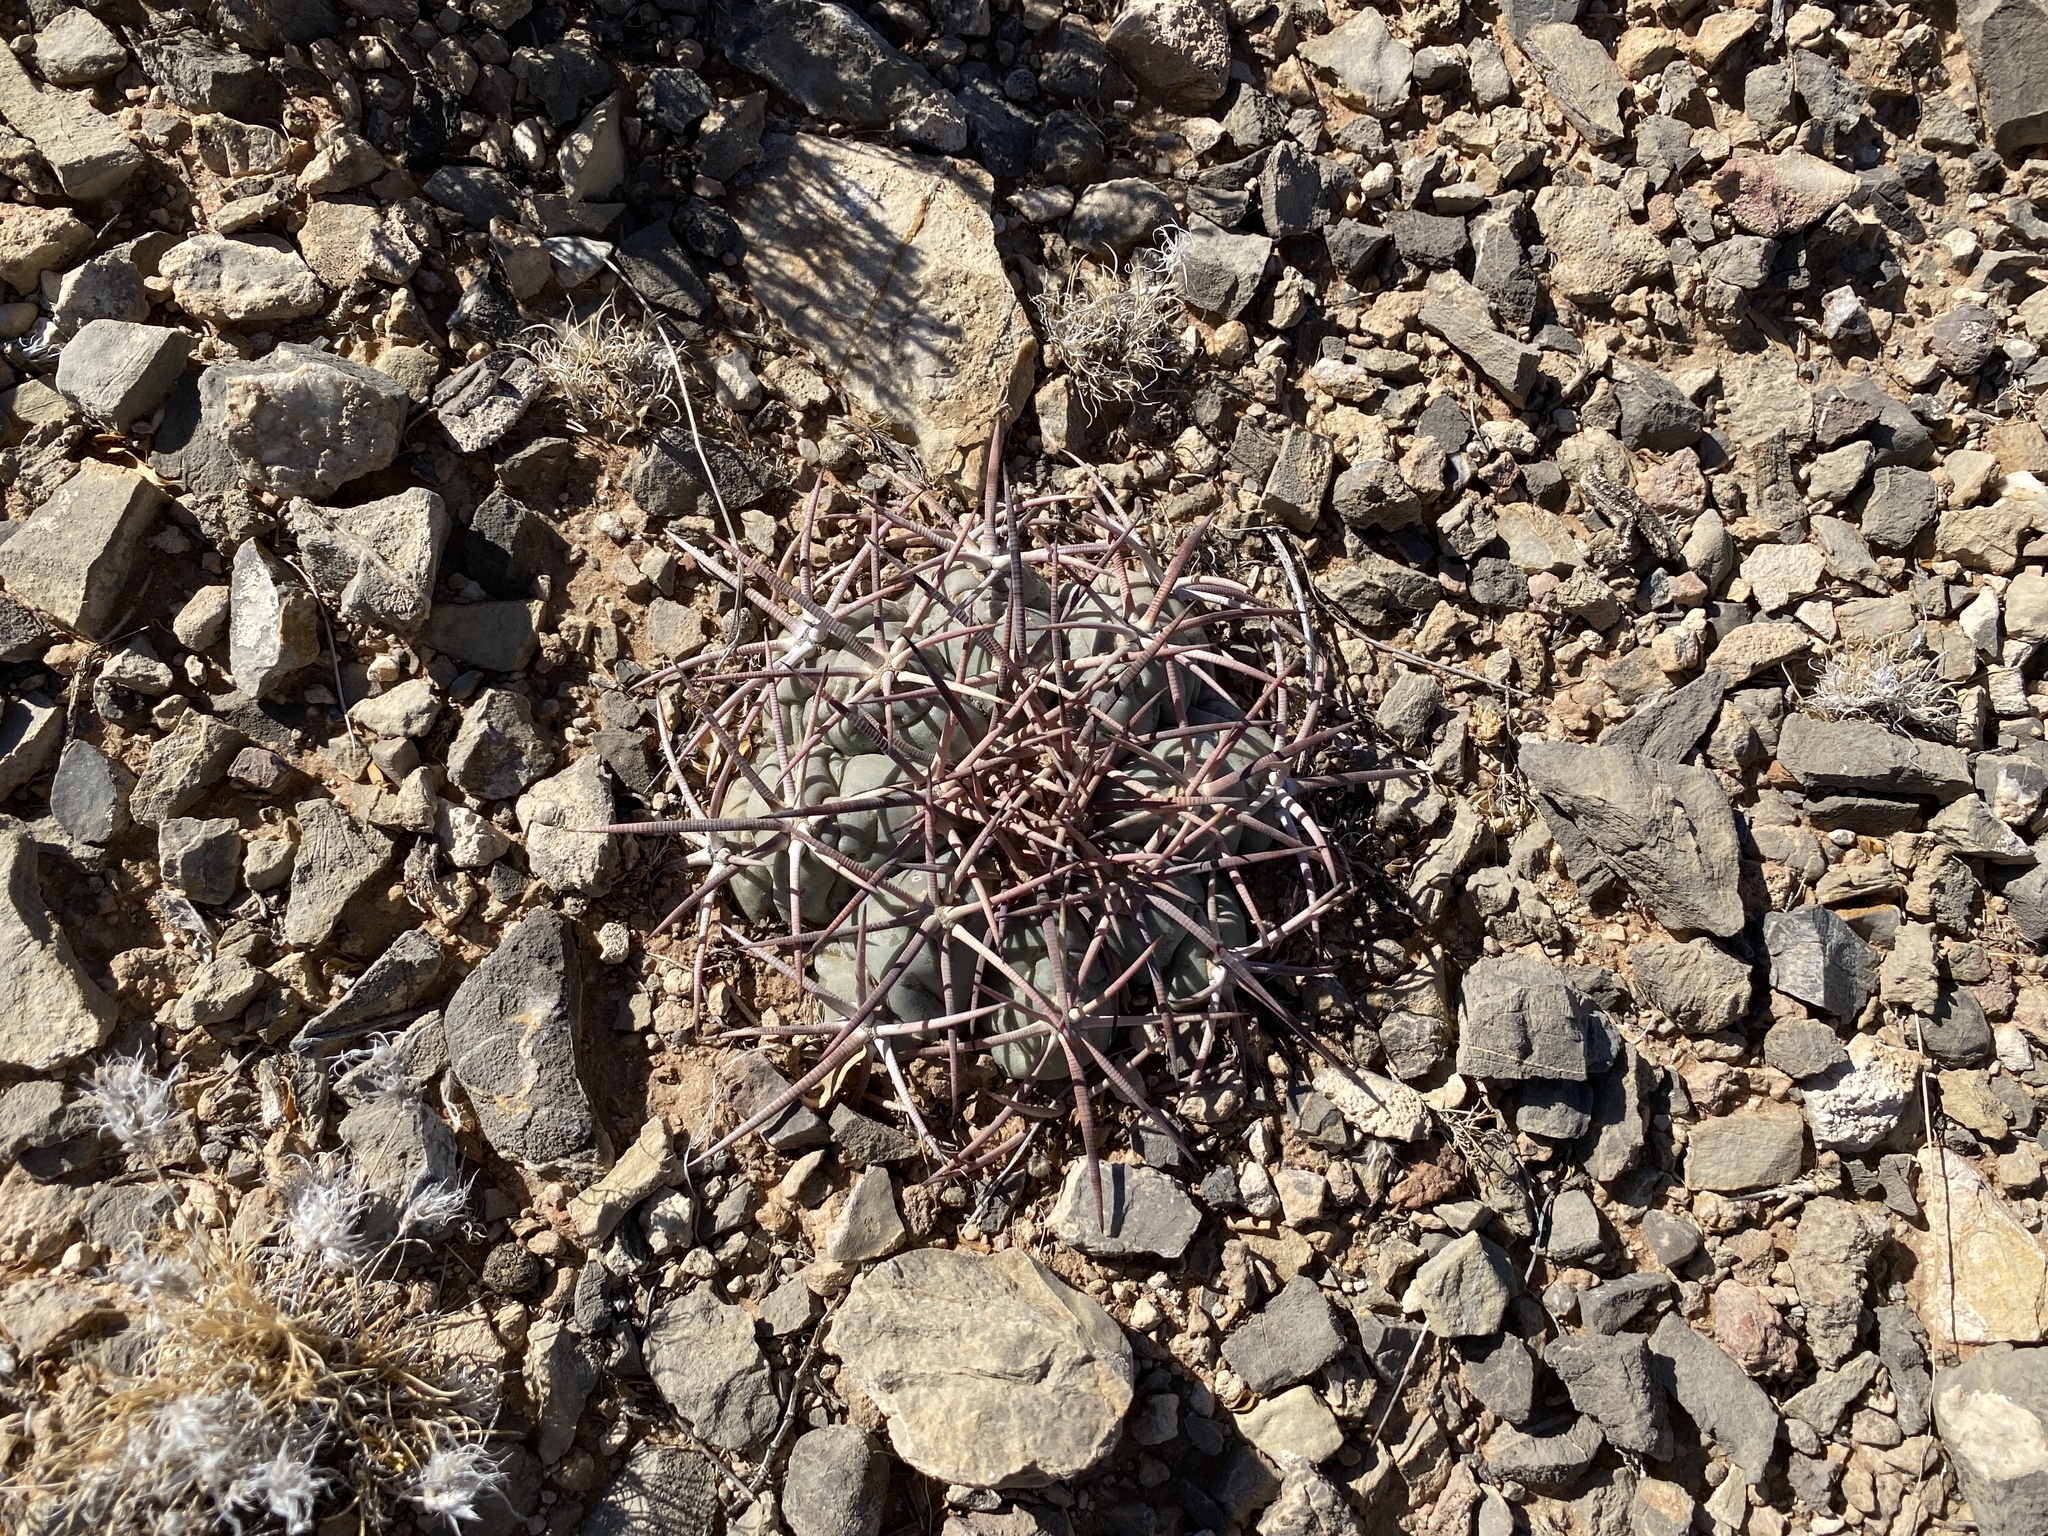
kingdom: Plantae
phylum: Tracheophyta
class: Magnoliopsida
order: Caryophyllales
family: Cactaceae
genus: Echinocactus
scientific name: Echinocactus horizonthalonius
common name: Devilshead
